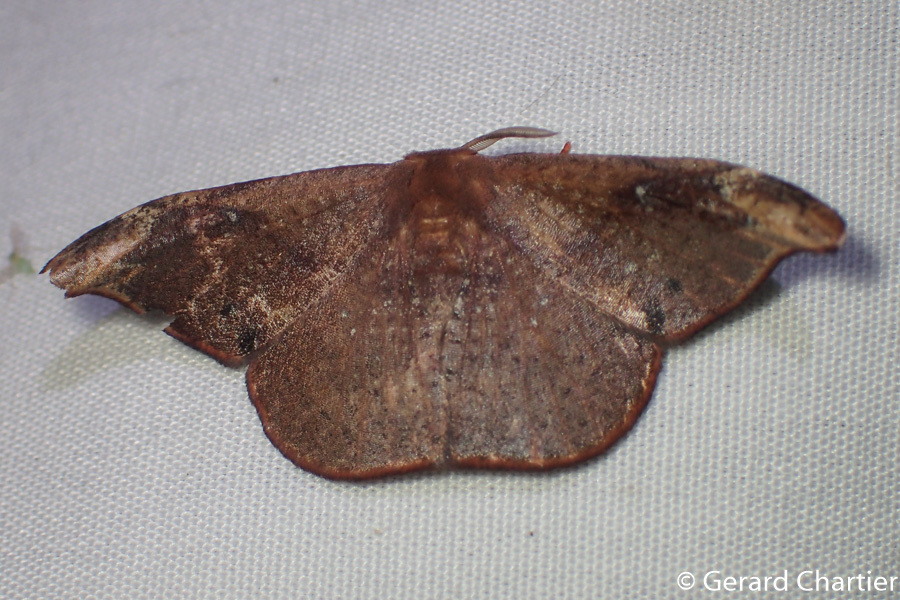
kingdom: Animalia
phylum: Arthropoda
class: Insecta
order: Lepidoptera
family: Drepanidae
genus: Oreta
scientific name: Oreta carnea
